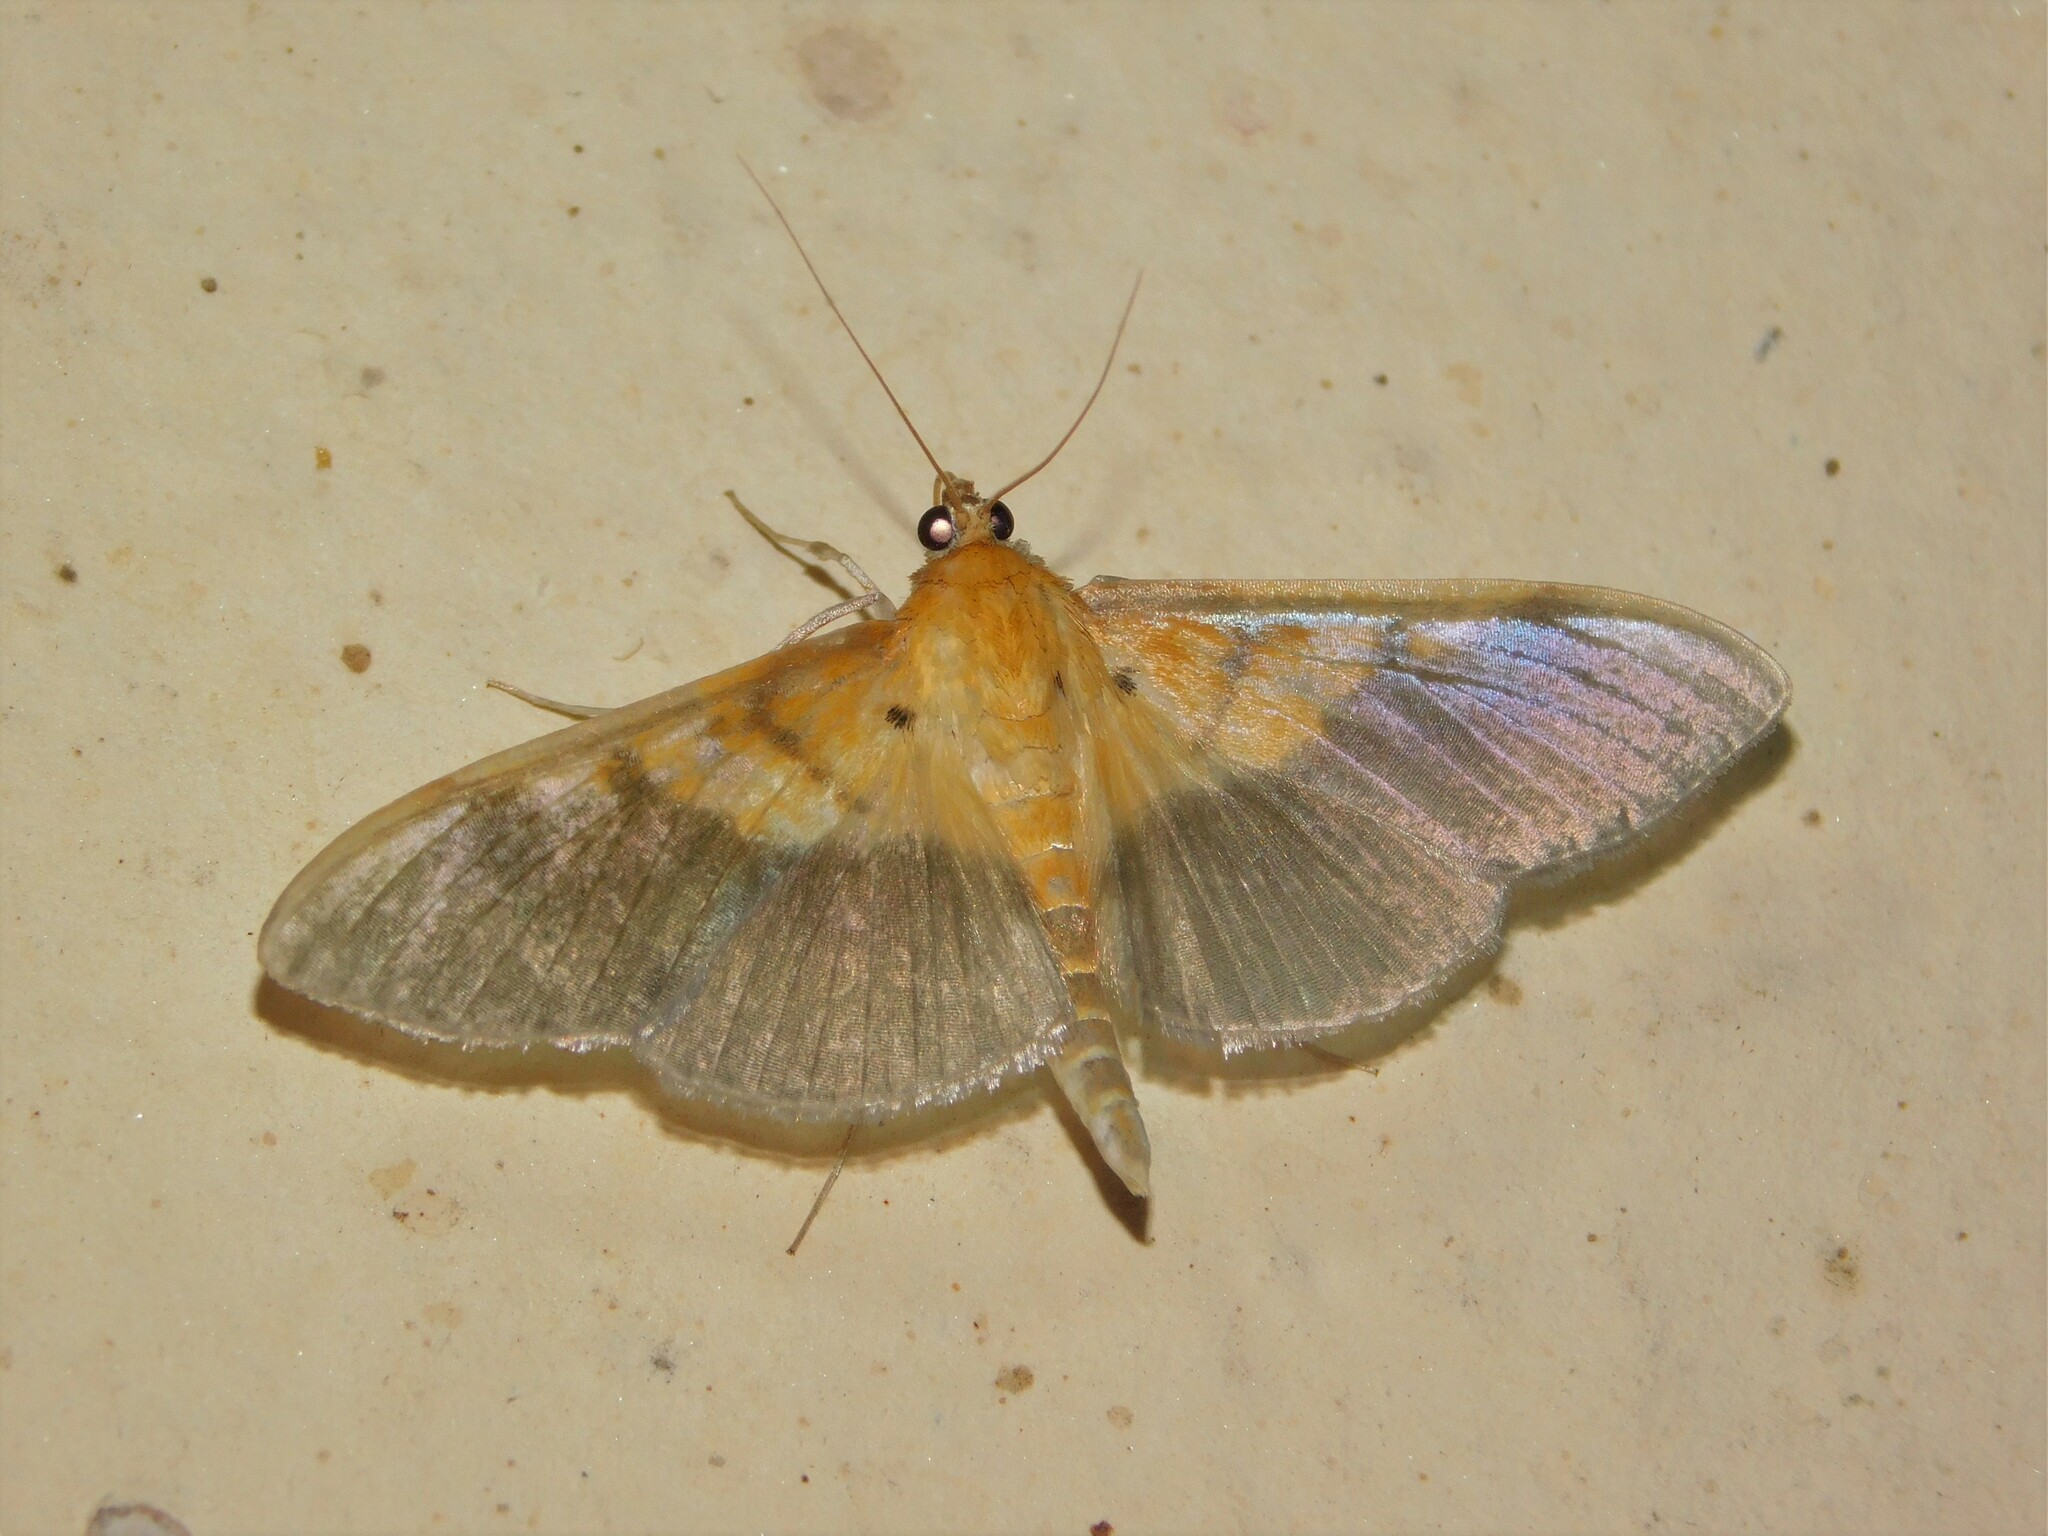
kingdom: Animalia
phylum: Arthropoda
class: Insecta
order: Lepidoptera
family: Crambidae
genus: Syllepte
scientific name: Syllepte semilugens
